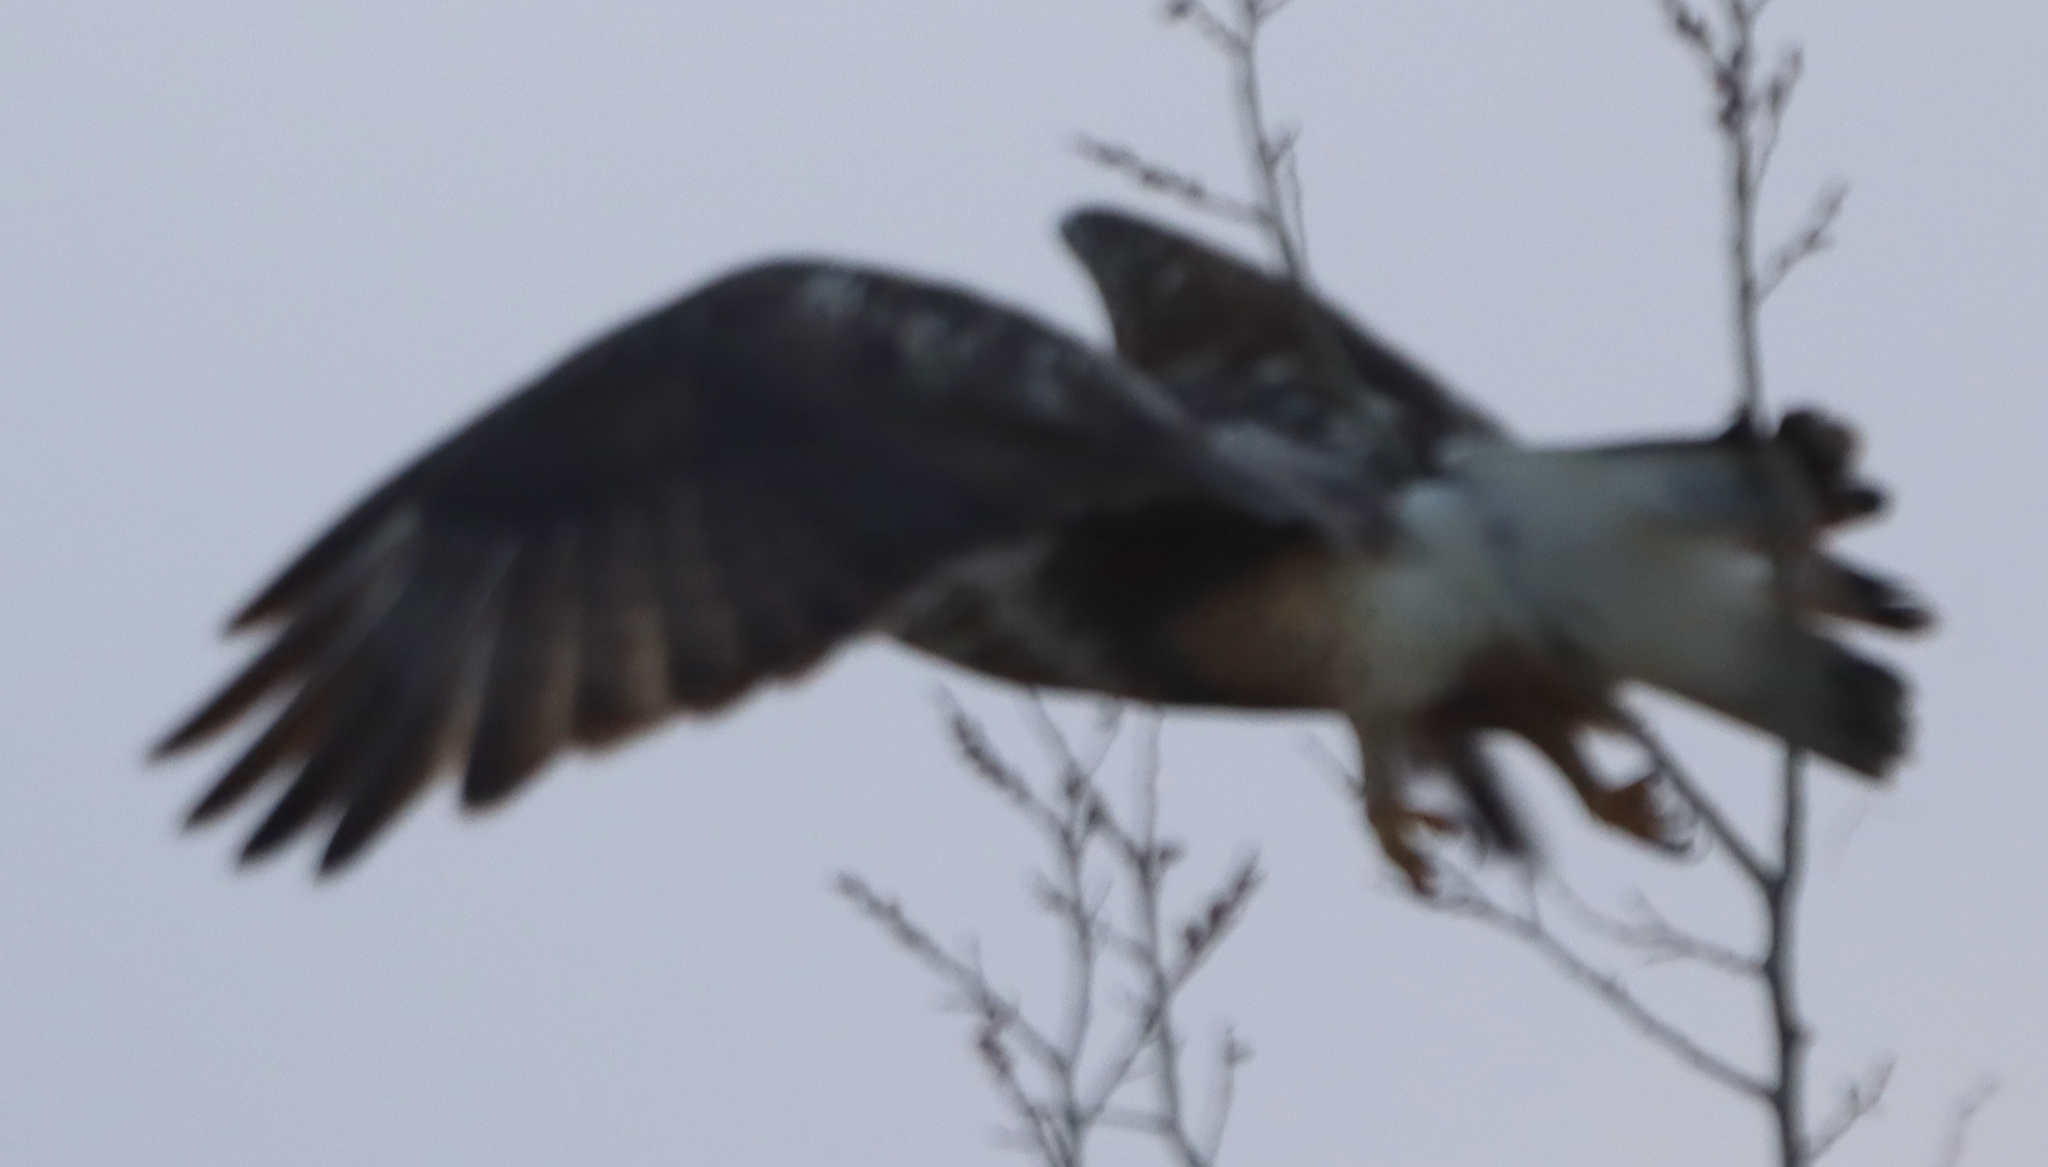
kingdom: Animalia
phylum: Chordata
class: Aves
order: Accipitriformes
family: Accipitridae
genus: Buteo
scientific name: Buteo lagopus
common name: Rough-legged buzzard
